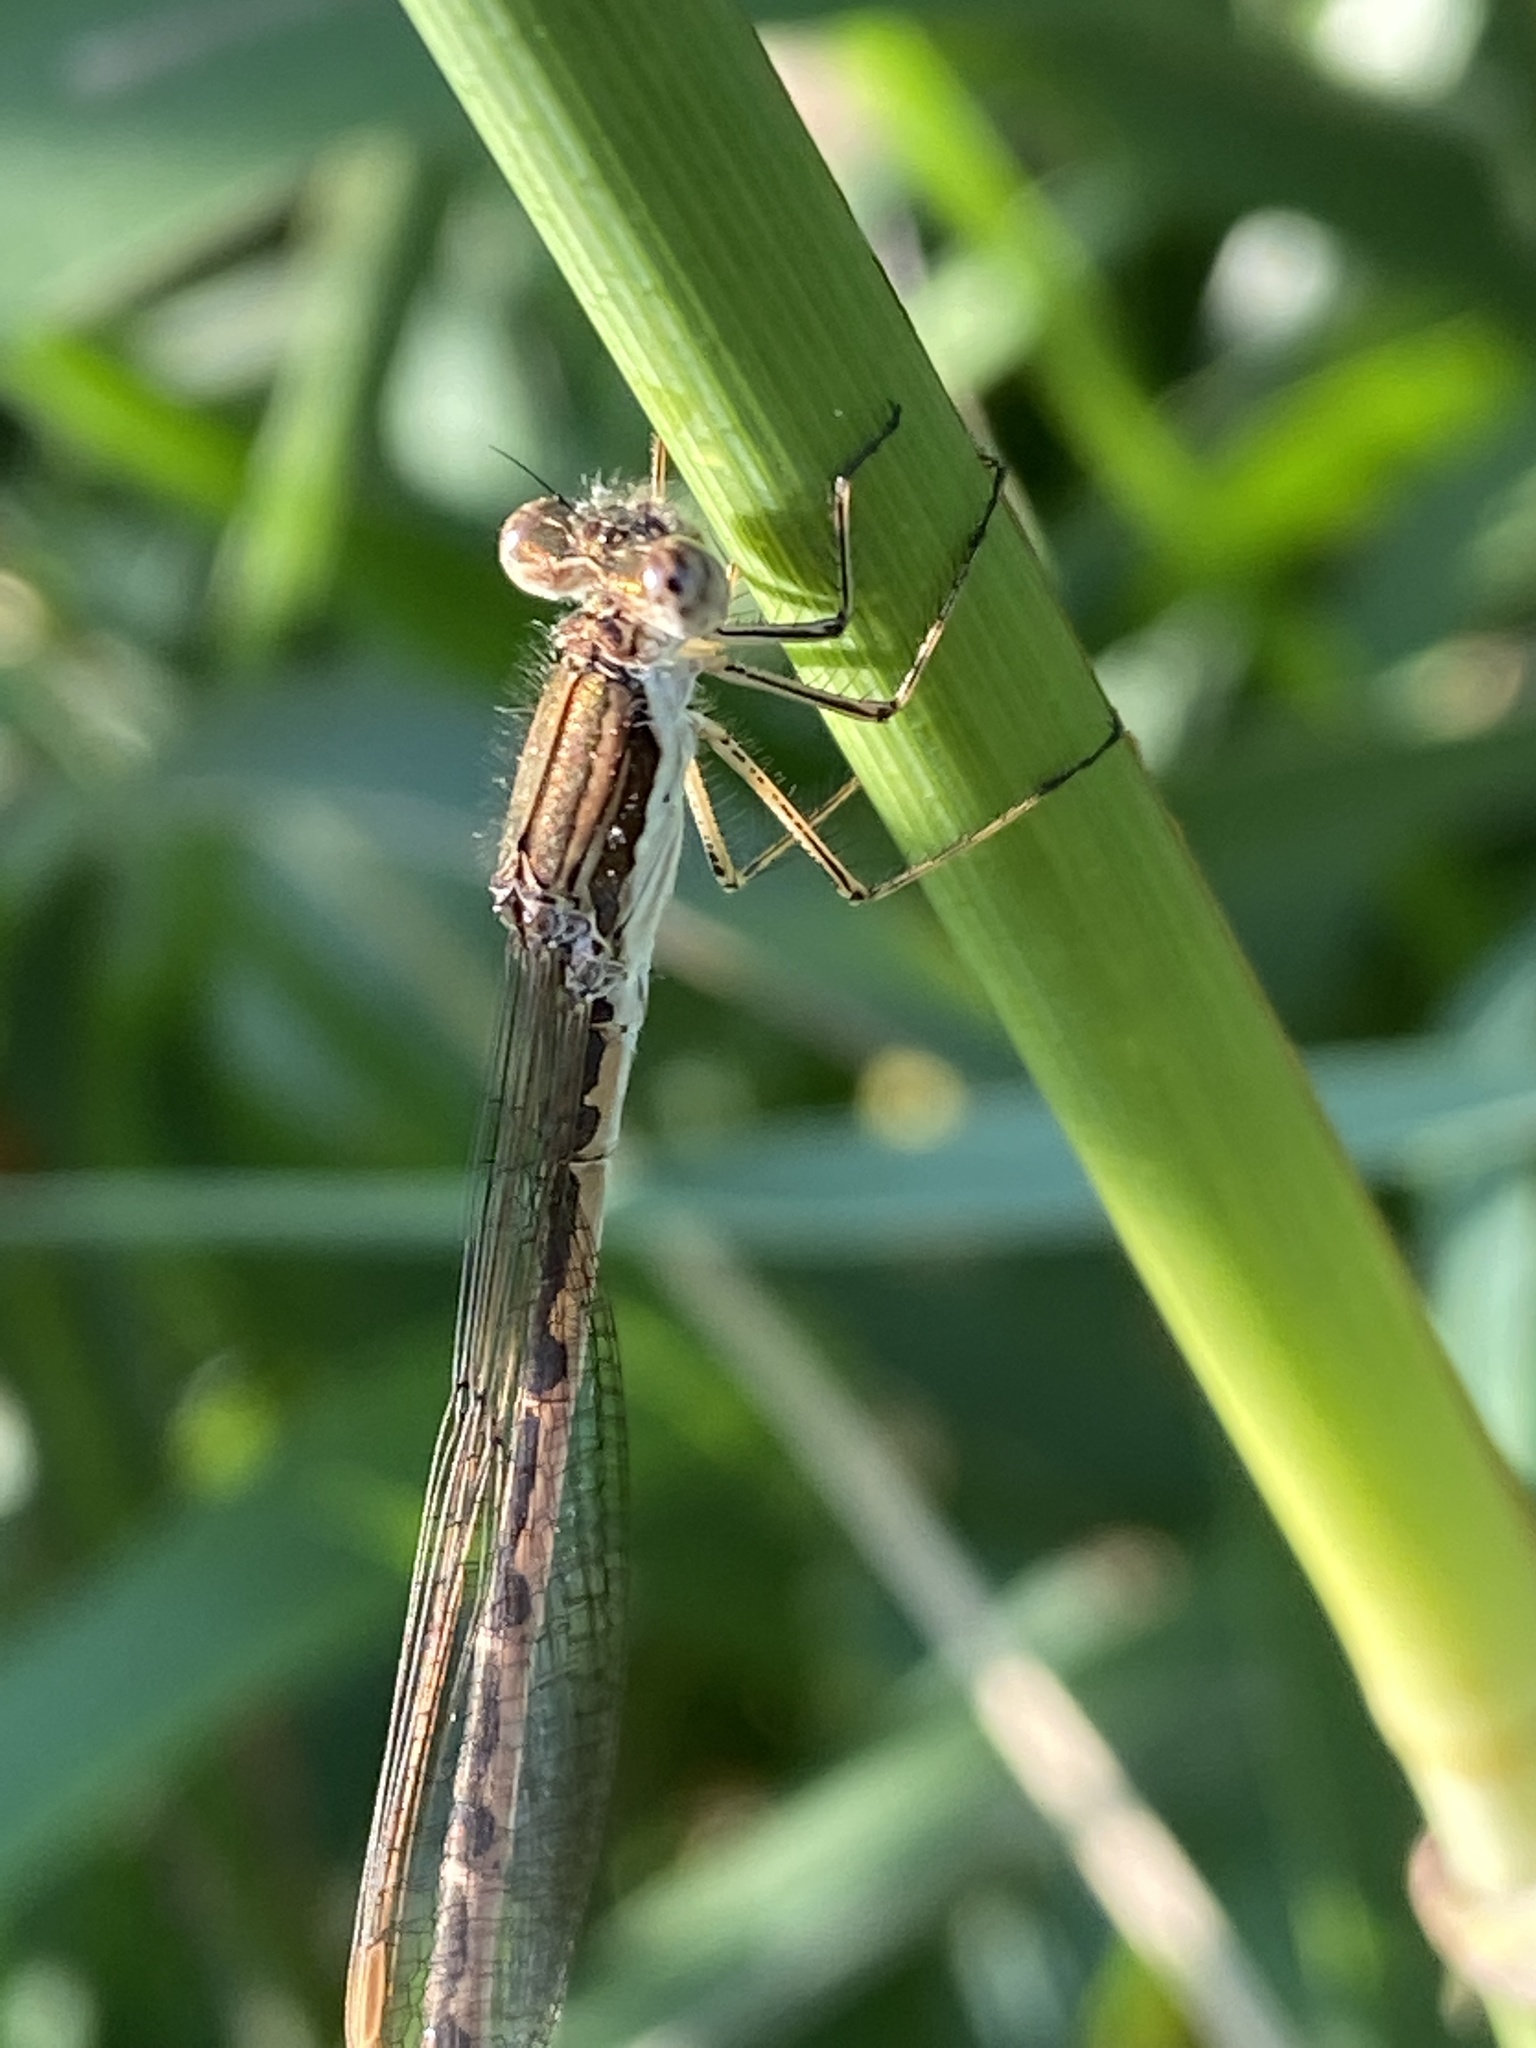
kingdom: Animalia
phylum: Arthropoda
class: Insecta
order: Odonata
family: Lestidae
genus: Sympecma
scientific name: Sympecma fusca
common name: Common winter damsel
